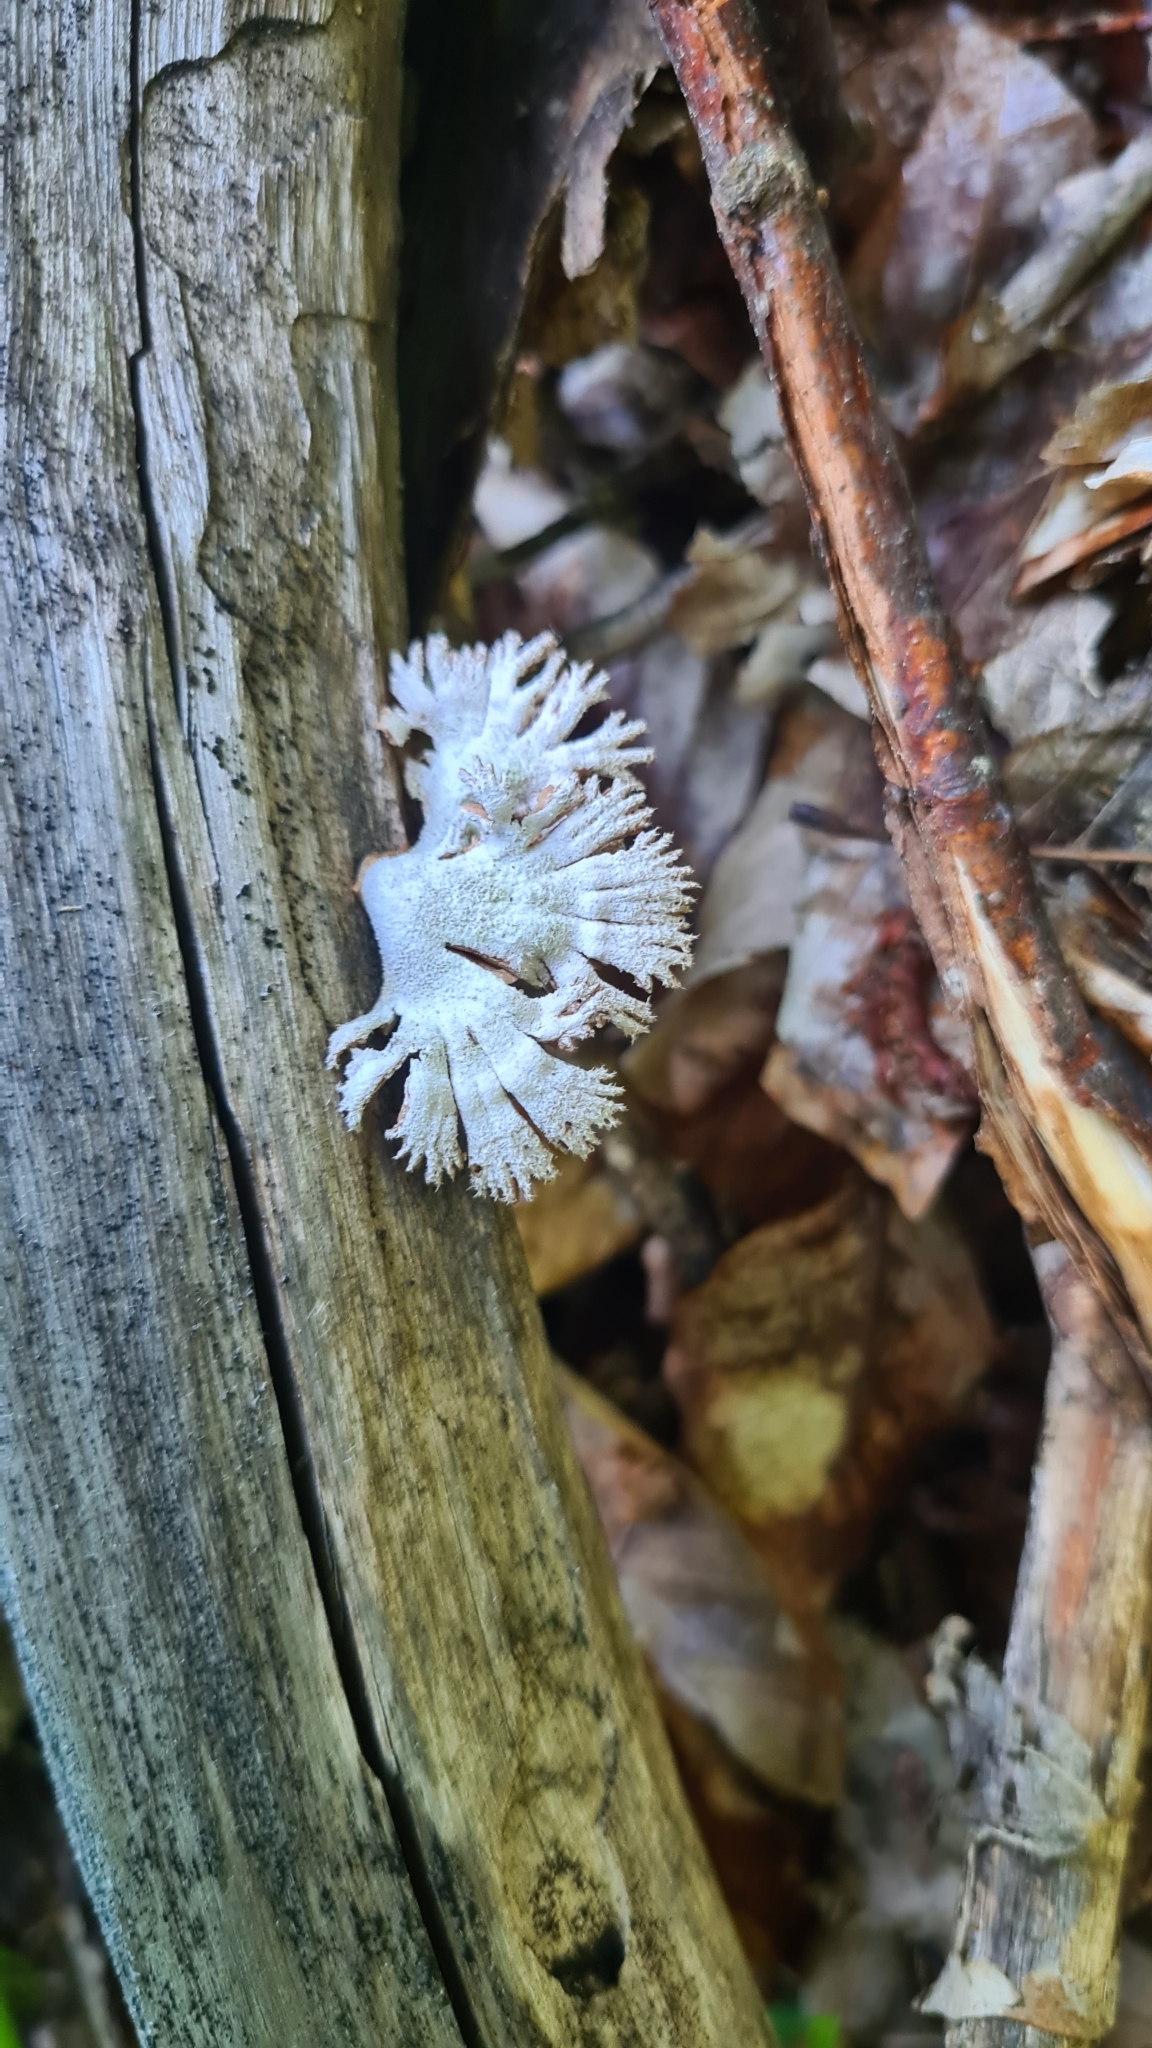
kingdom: Fungi
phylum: Basidiomycota
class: Agaricomycetes
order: Agaricales
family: Schizophyllaceae
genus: Schizophyllum
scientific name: Schizophyllum commune
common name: Common porecrust
